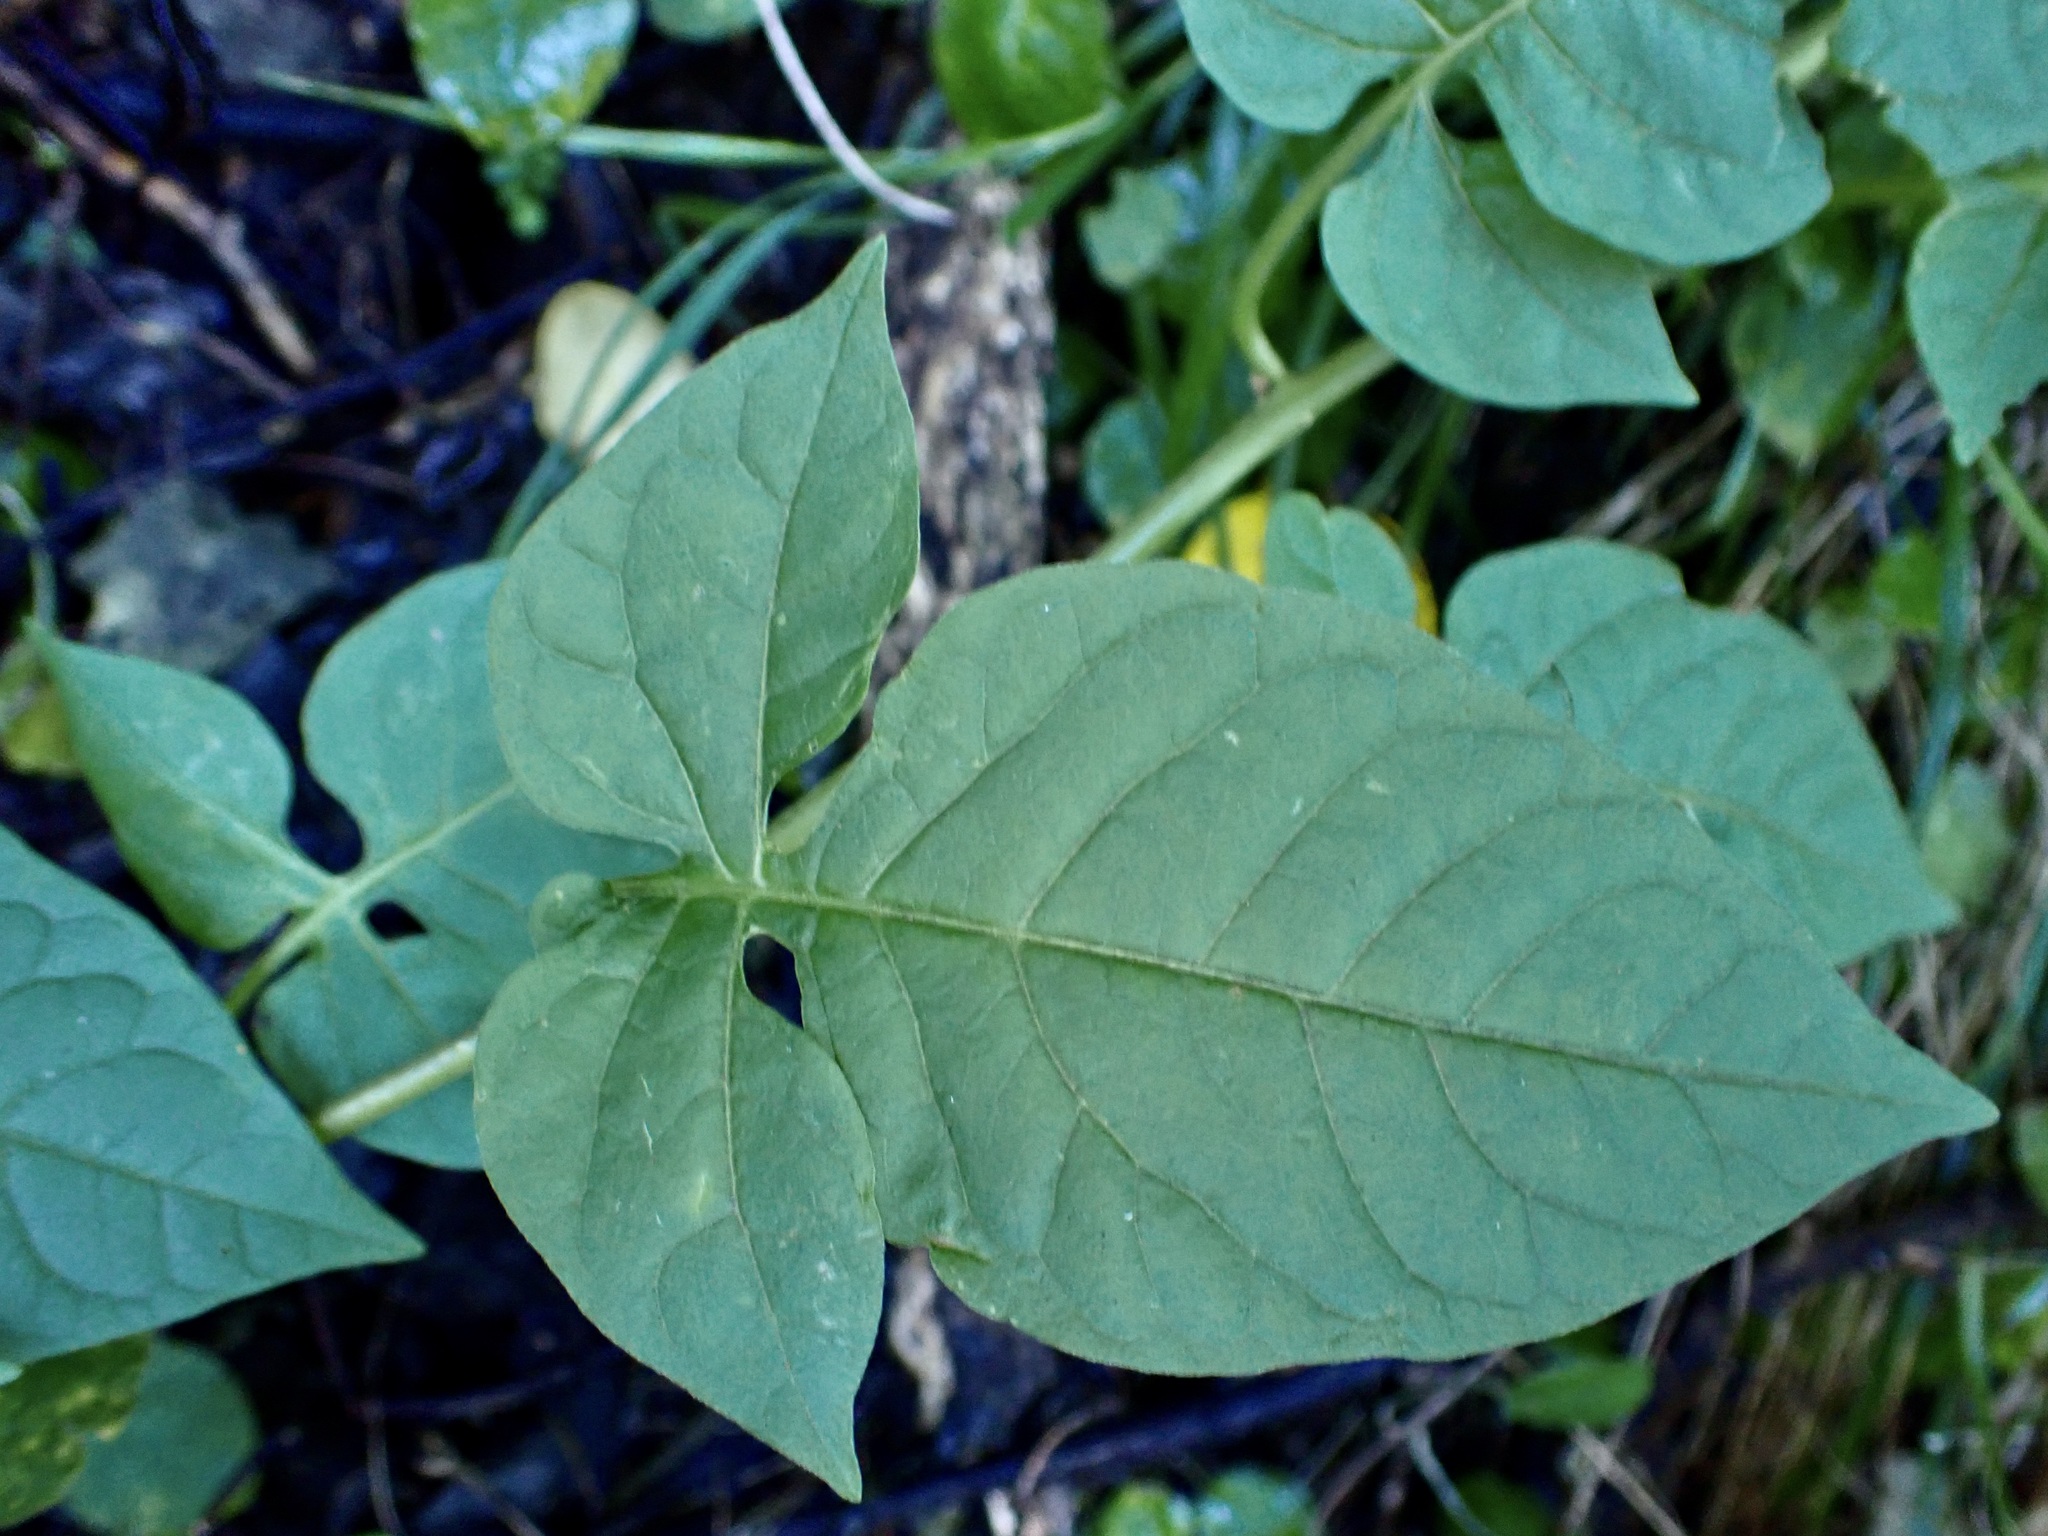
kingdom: Plantae
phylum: Tracheophyta
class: Magnoliopsida
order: Solanales
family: Solanaceae
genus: Solanum
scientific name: Solanum dulcamara
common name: Climbing nightshade
